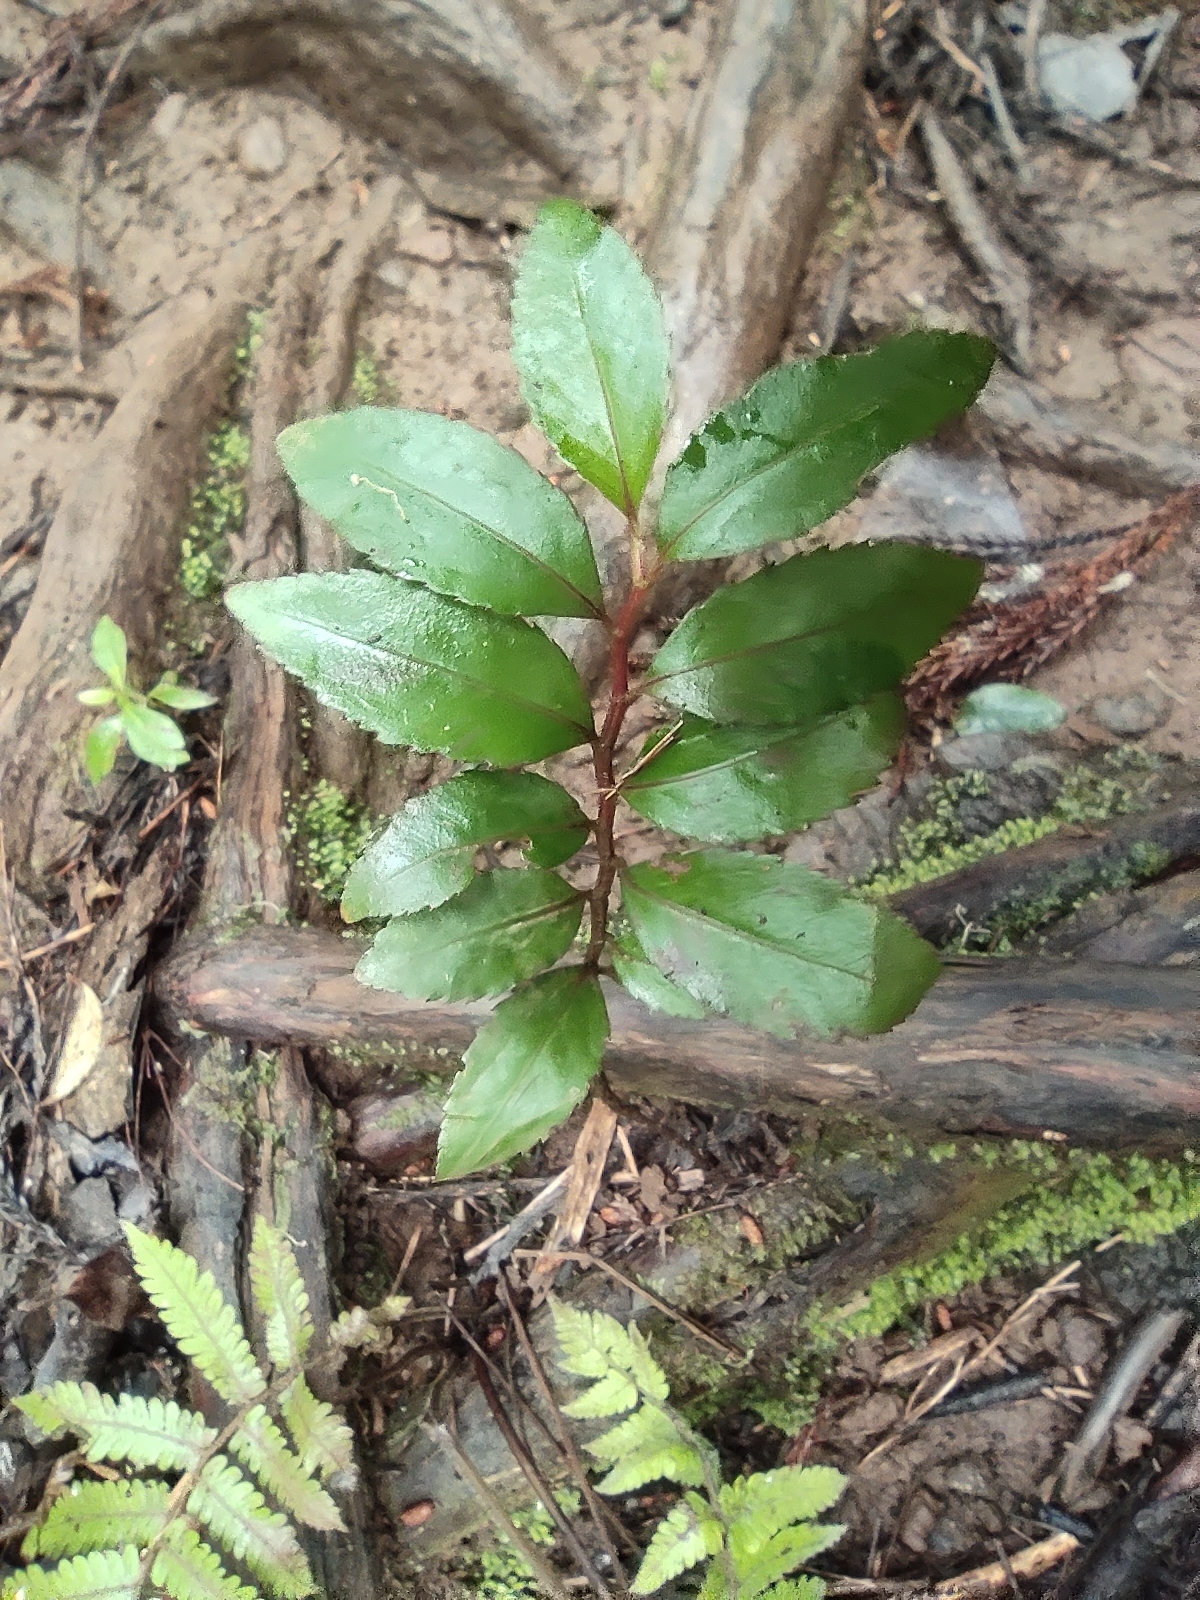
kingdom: Plantae
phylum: Tracheophyta
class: Magnoliopsida
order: Crossosomatales
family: Aphloiaceae
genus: Aphloia
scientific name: Aphloia theiformis
